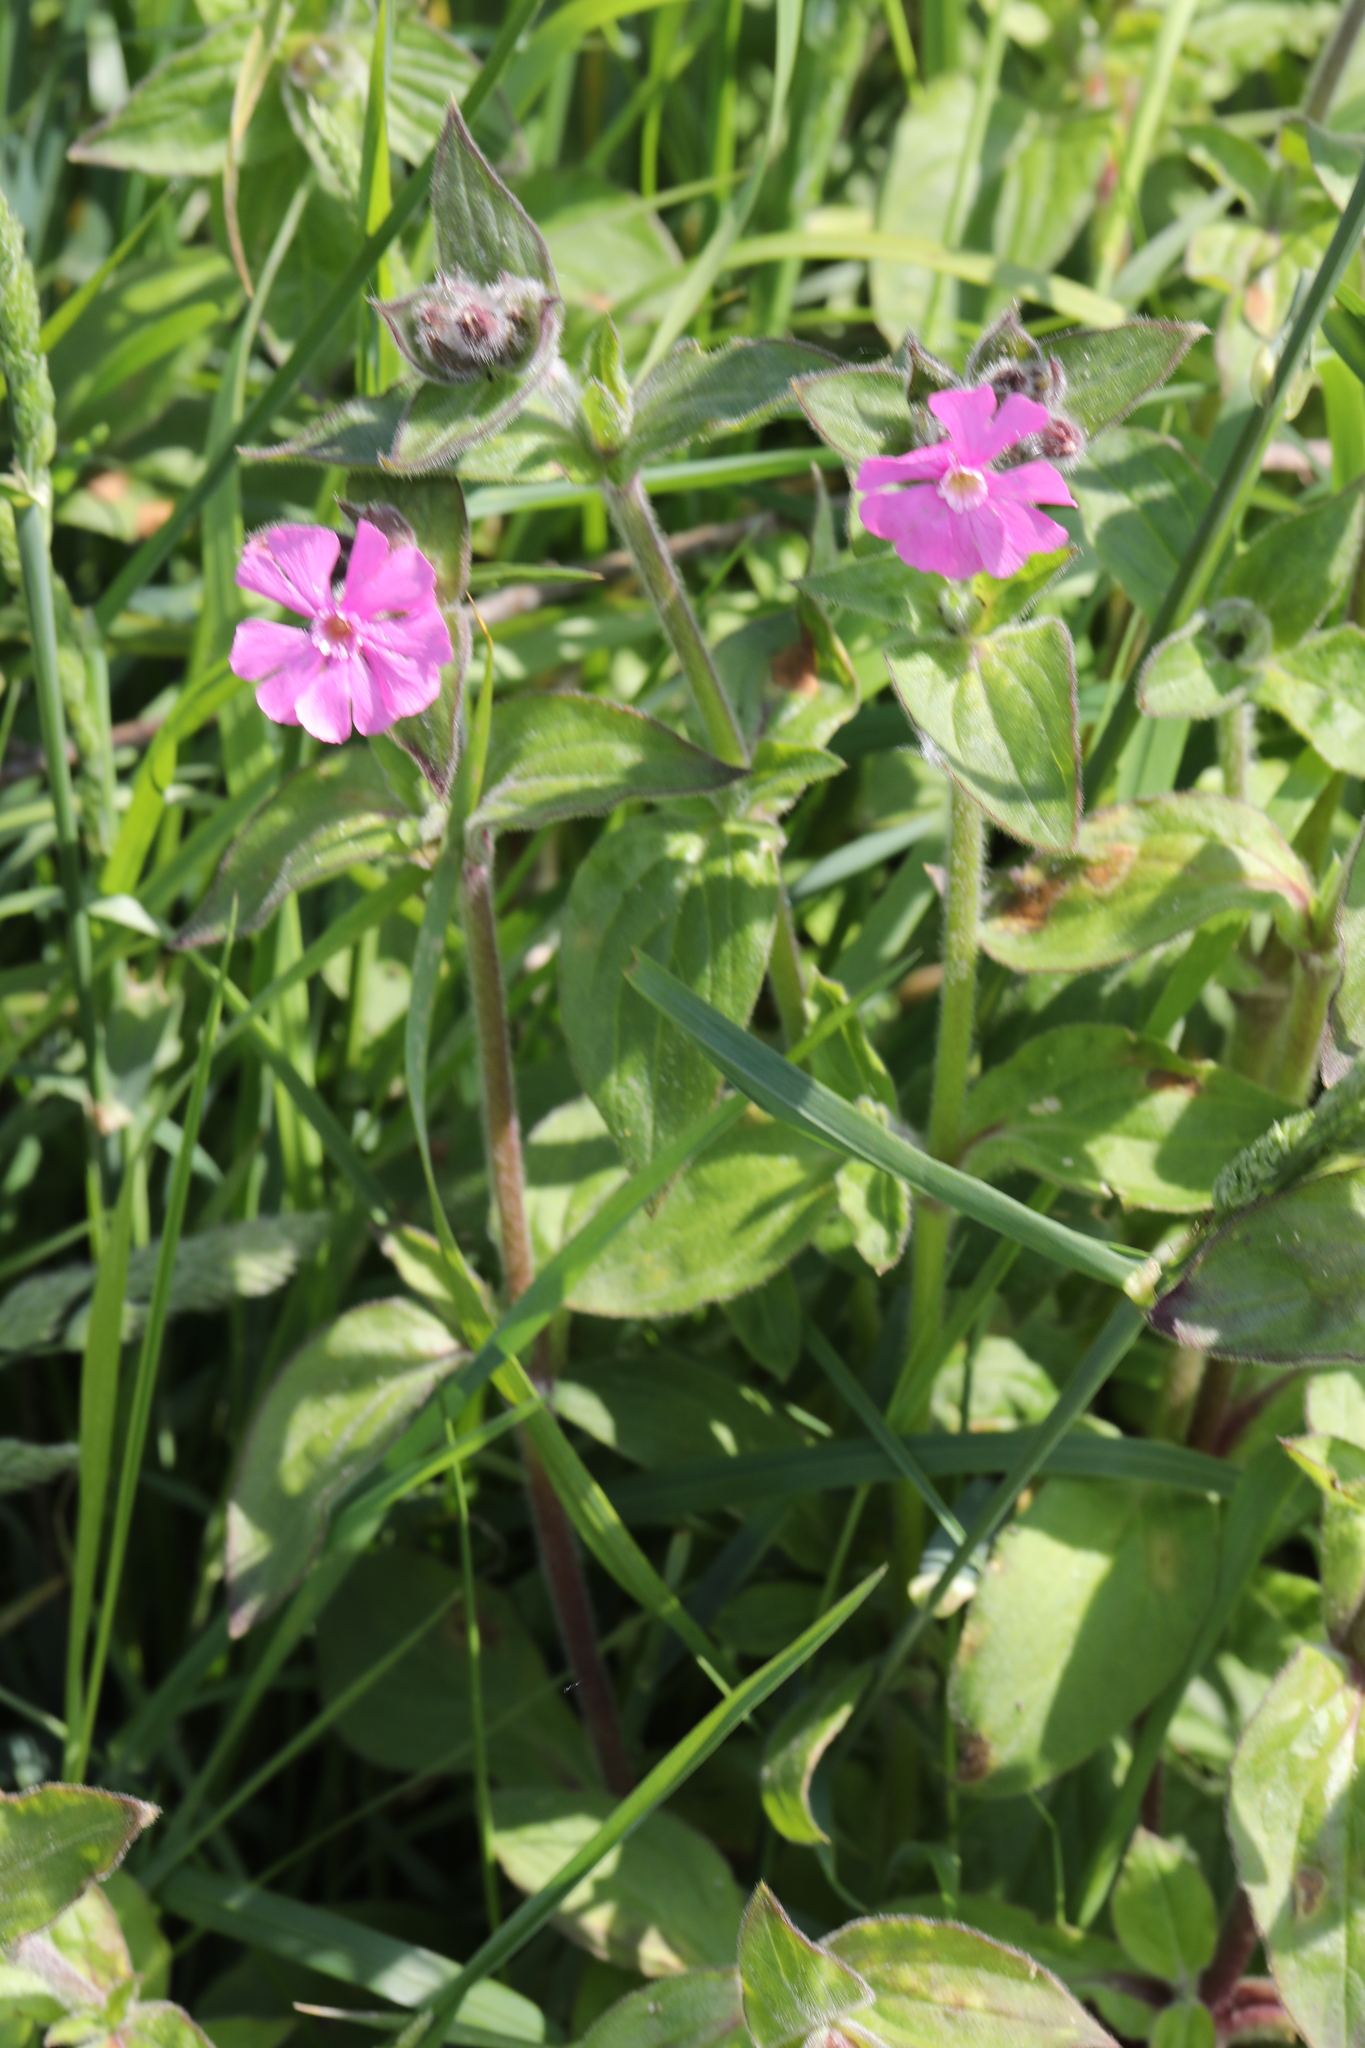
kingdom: Plantae
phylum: Tracheophyta
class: Magnoliopsida
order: Caryophyllales
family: Caryophyllaceae
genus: Silene
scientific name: Silene dioica
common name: Red campion
